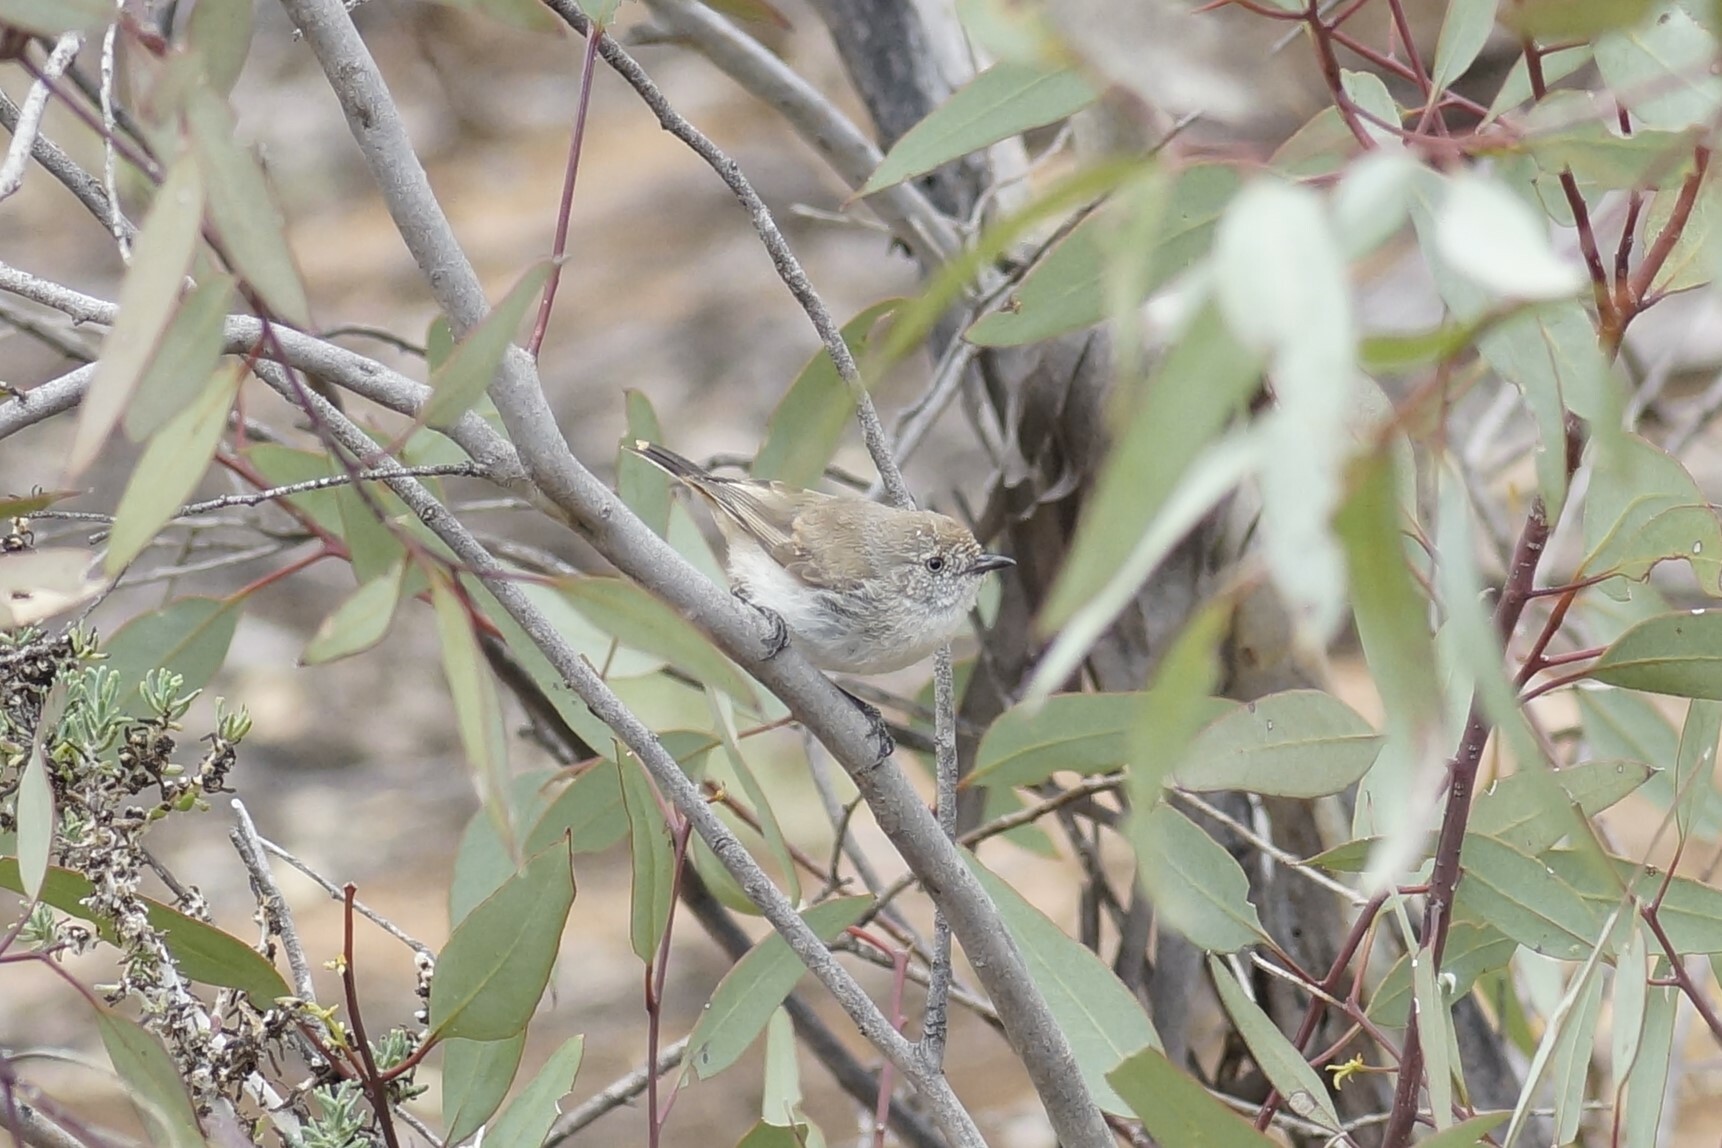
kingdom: Animalia
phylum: Chordata
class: Aves
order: Passeriformes
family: Acanthizidae
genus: Acanthiza
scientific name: Acanthiza uropygialis
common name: Chestnut-rumped thornbill
